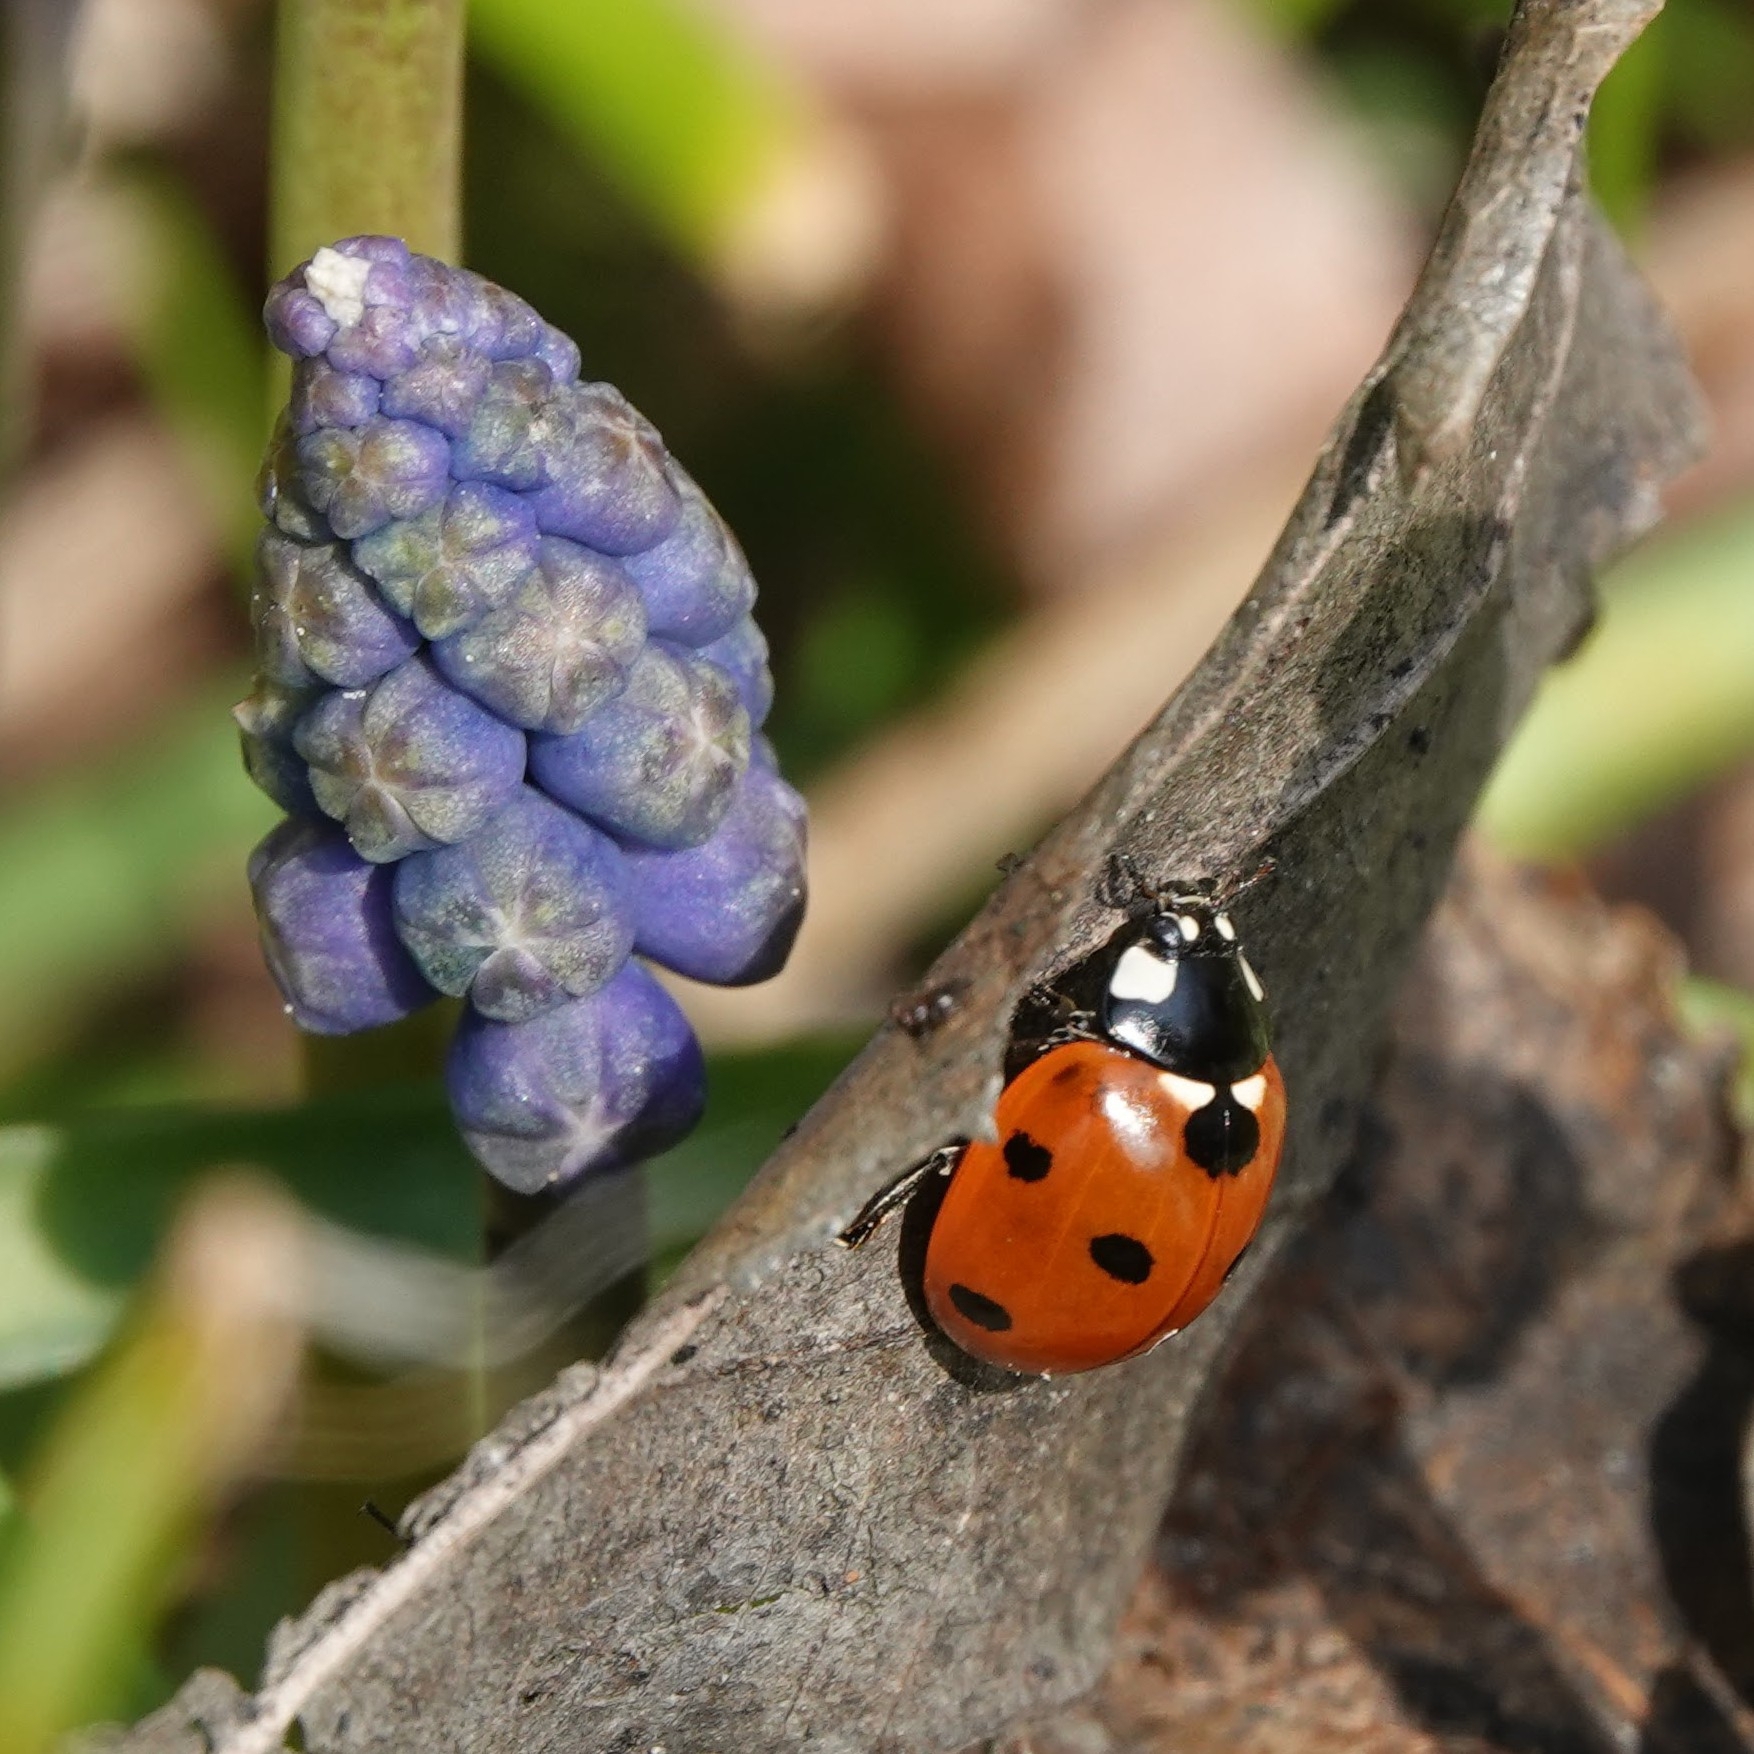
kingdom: Animalia
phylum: Arthropoda
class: Insecta
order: Coleoptera
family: Coccinellidae
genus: Coccinella
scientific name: Coccinella septempunctata
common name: Sevenspotted lady beetle
